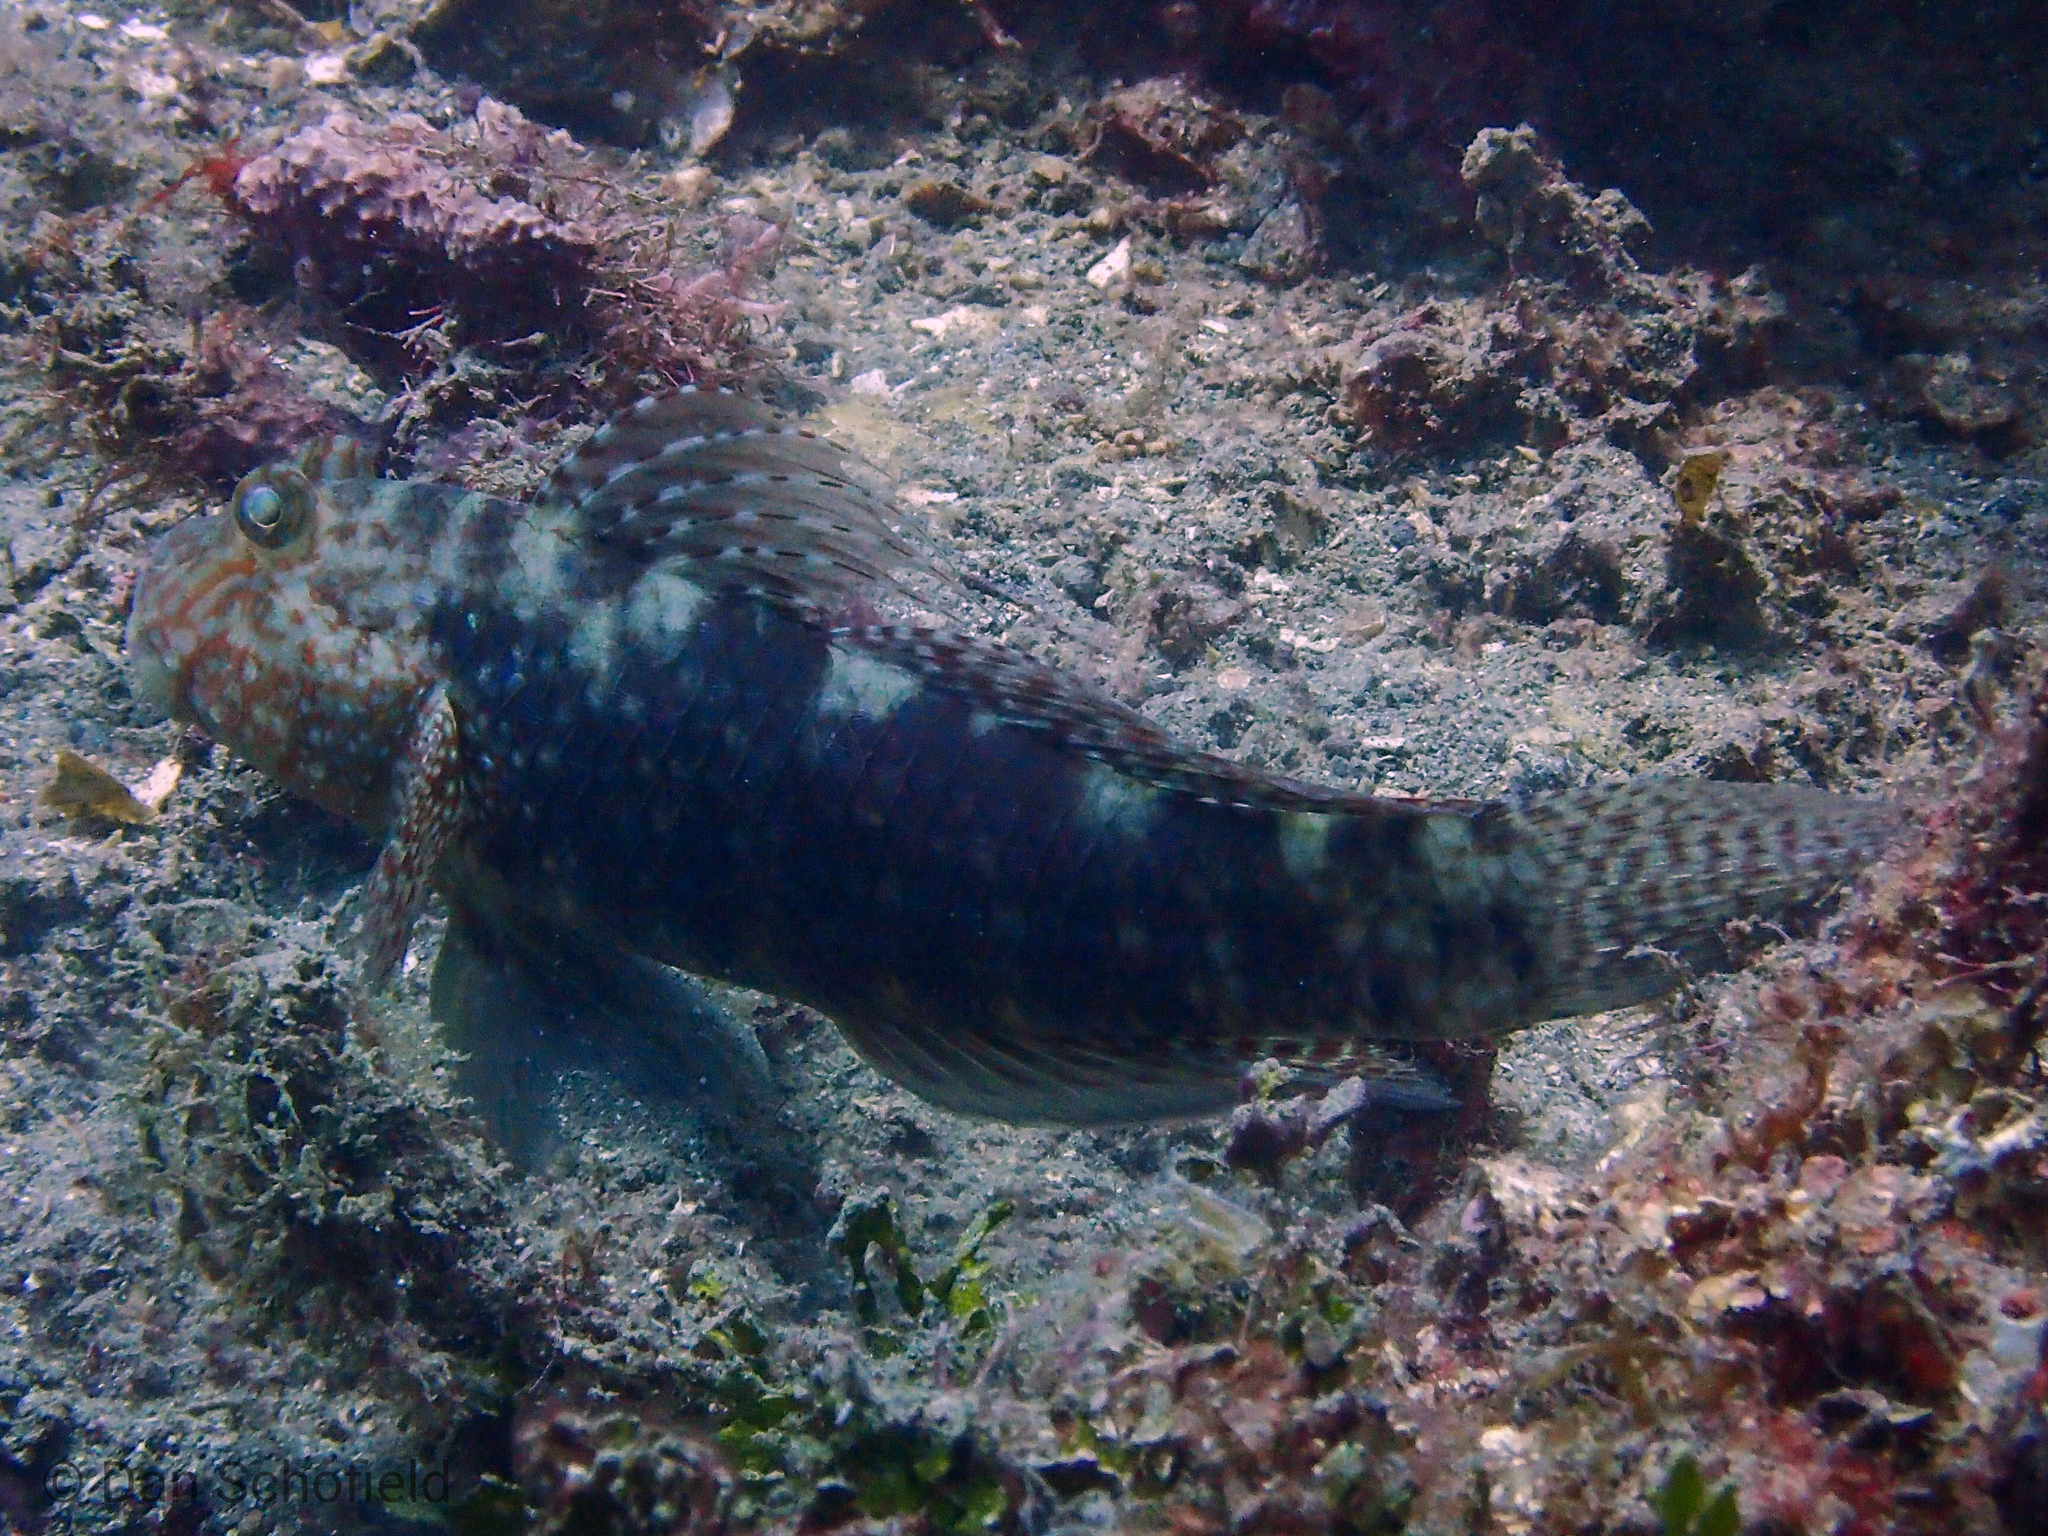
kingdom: Animalia
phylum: Chordata
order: Perciformes
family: Gobiidae
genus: Exyrias
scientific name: Exyrias belissimus
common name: Mud reef-goby
